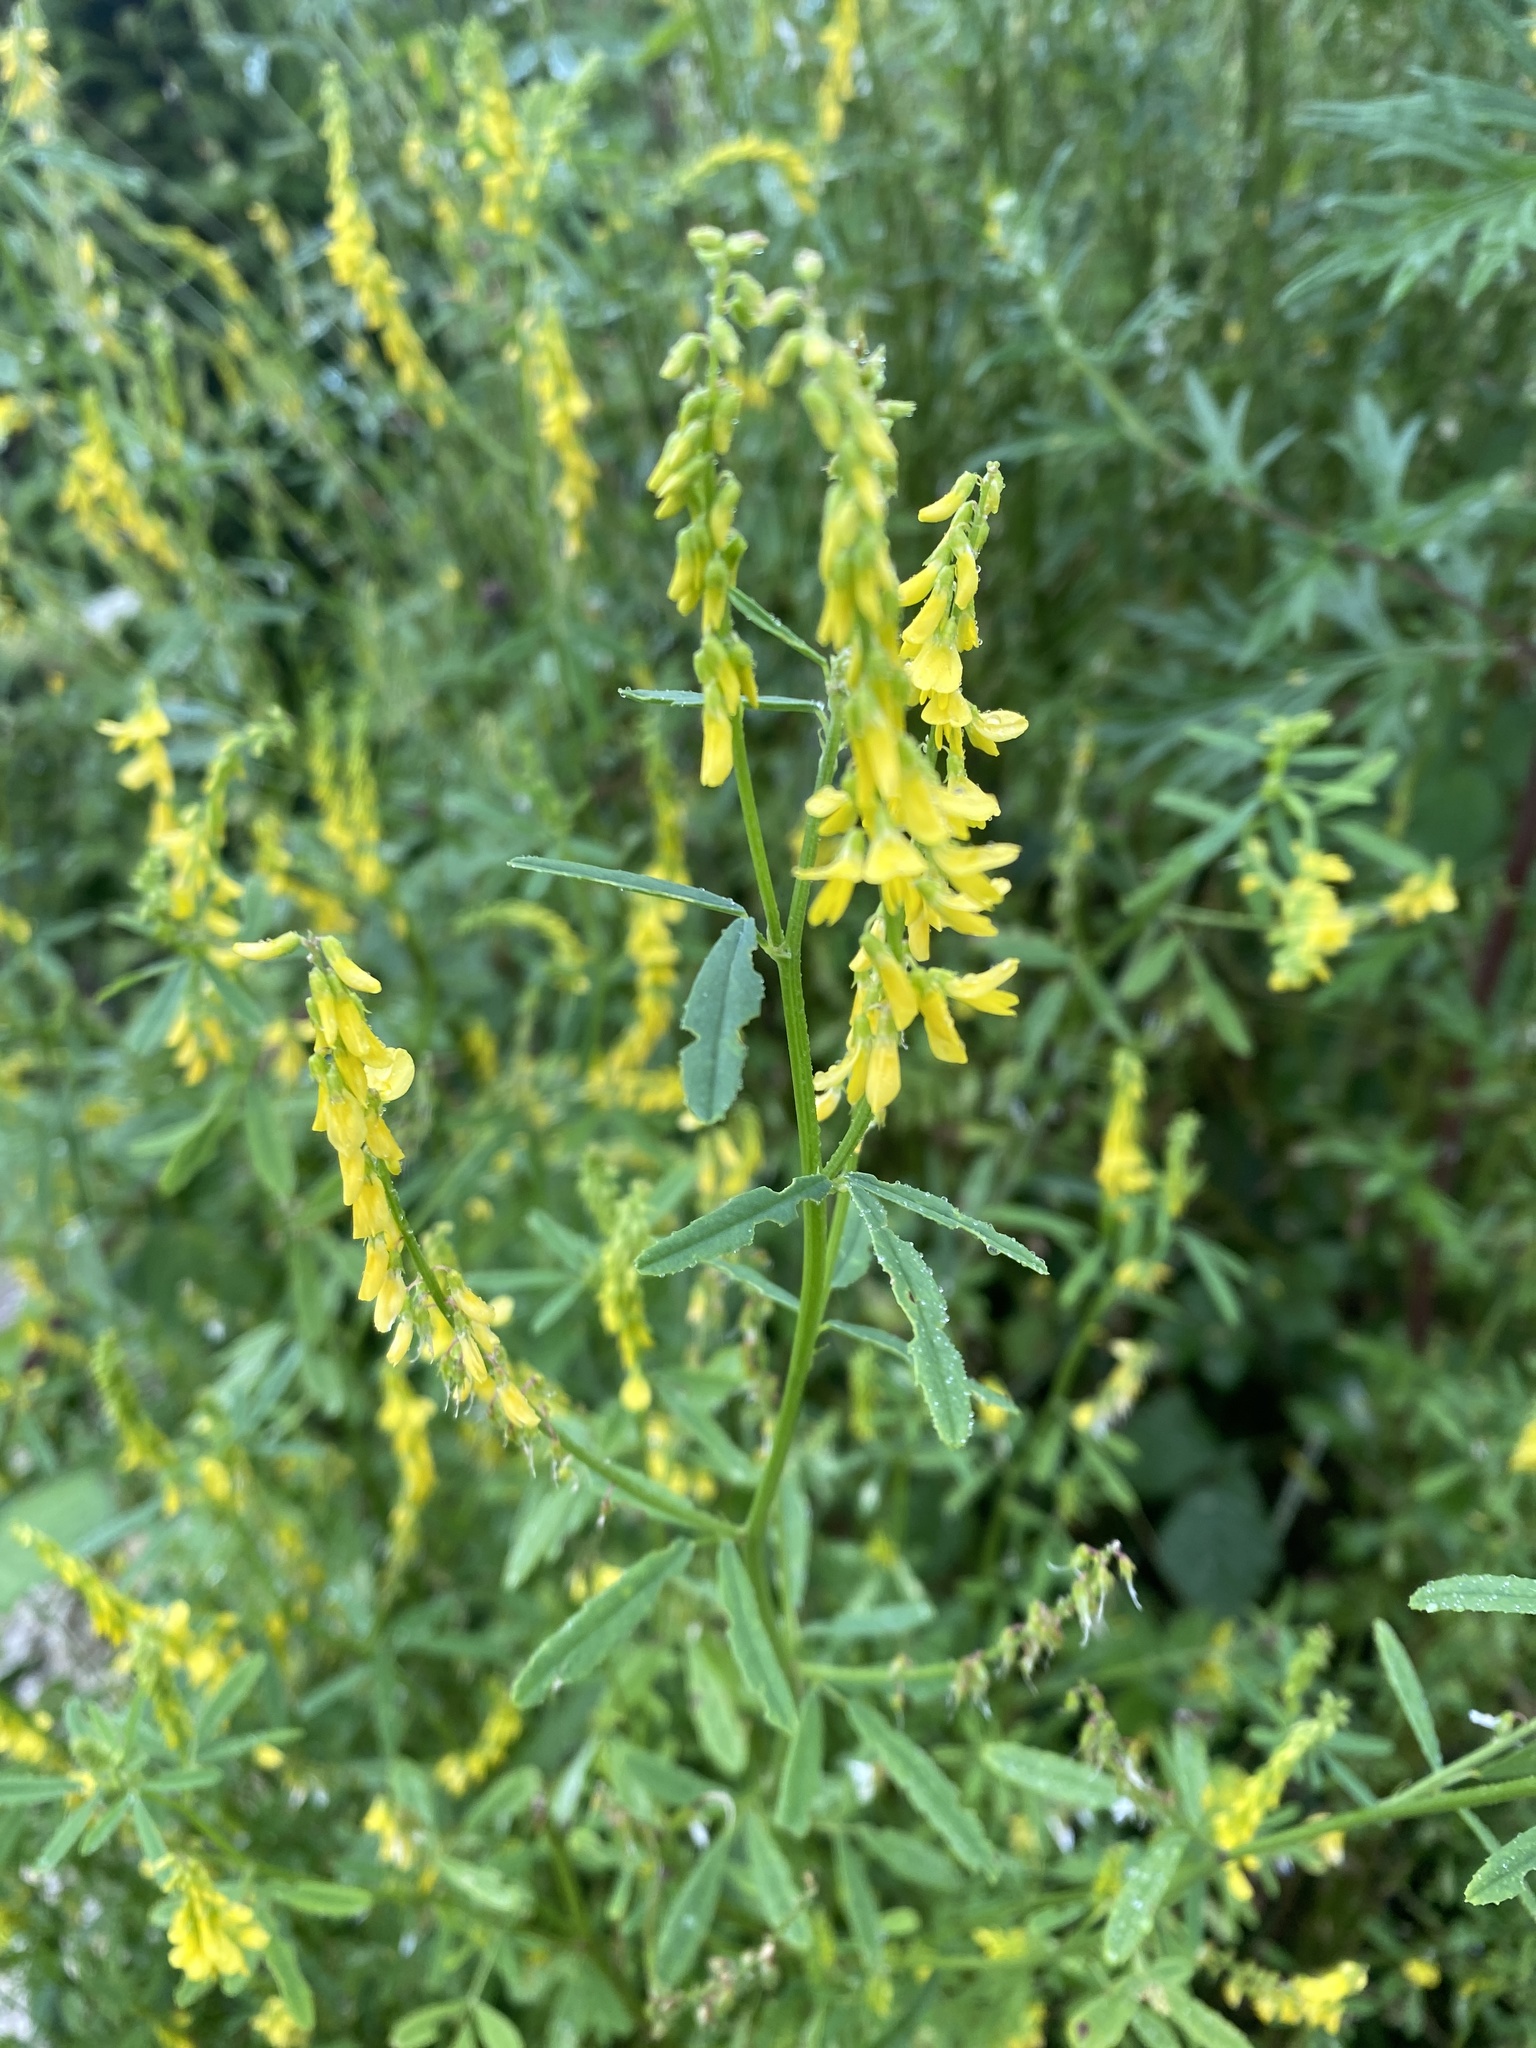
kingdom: Plantae
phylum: Tracheophyta
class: Magnoliopsida
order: Fabales
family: Fabaceae
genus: Melilotus
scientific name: Melilotus officinalis
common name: Sweetclover
